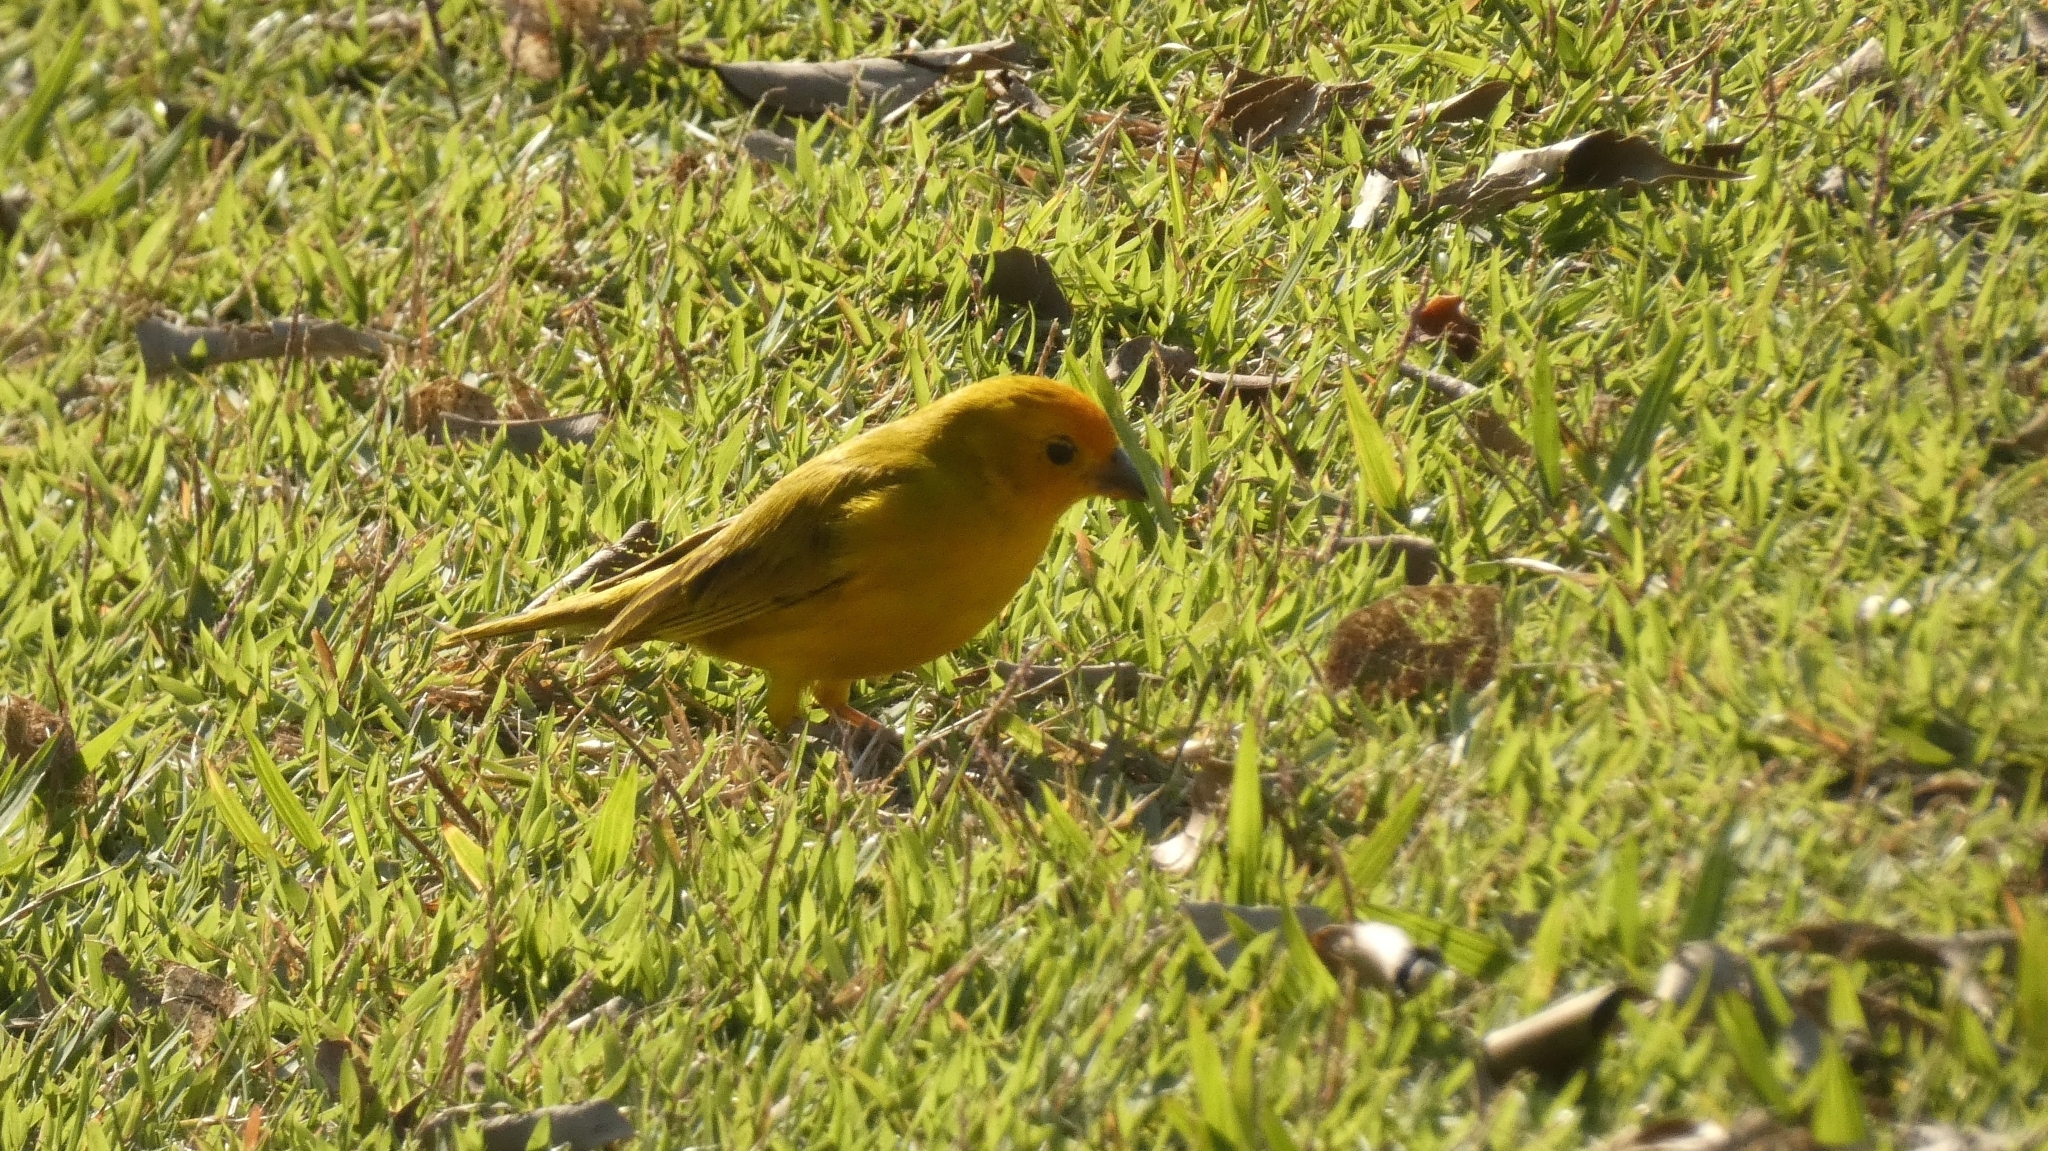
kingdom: Animalia
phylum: Chordata
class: Aves
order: Passeriformes
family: Thraupidae
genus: Sicalis
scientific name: Sicalis flaveola
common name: Saffron finch
